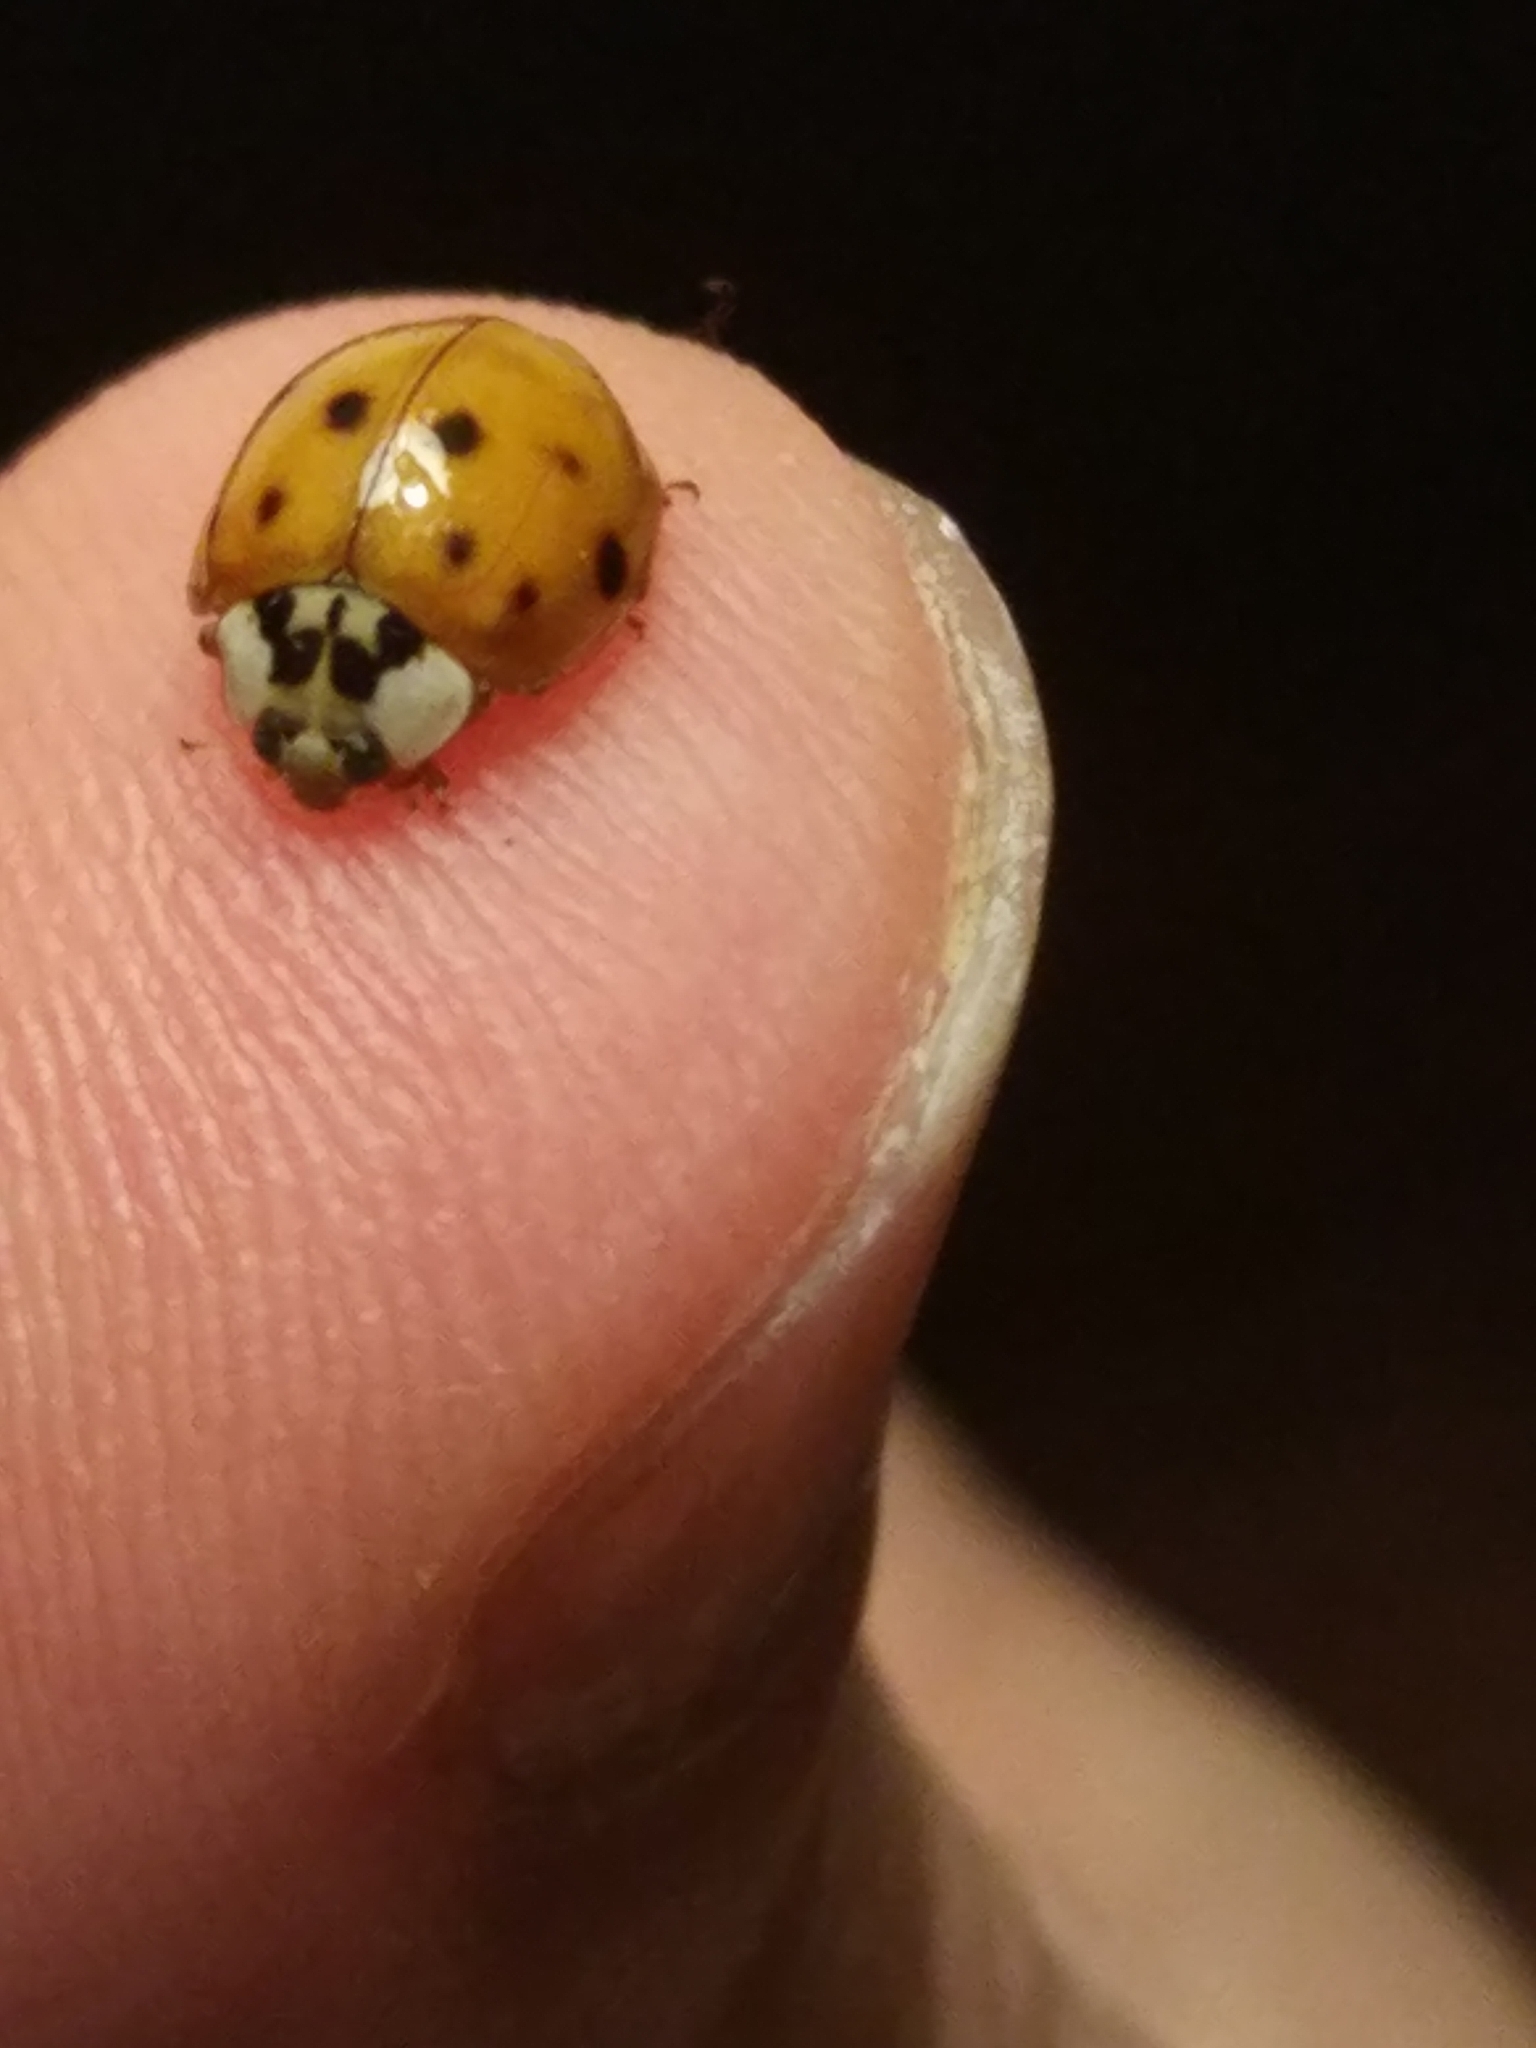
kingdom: Animalia
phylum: Arthropoda
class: Insecta
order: Coleoptera
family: Coccinellidae
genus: Harmonia
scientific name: Harmonia axyridis
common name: Harlequin ladybird
